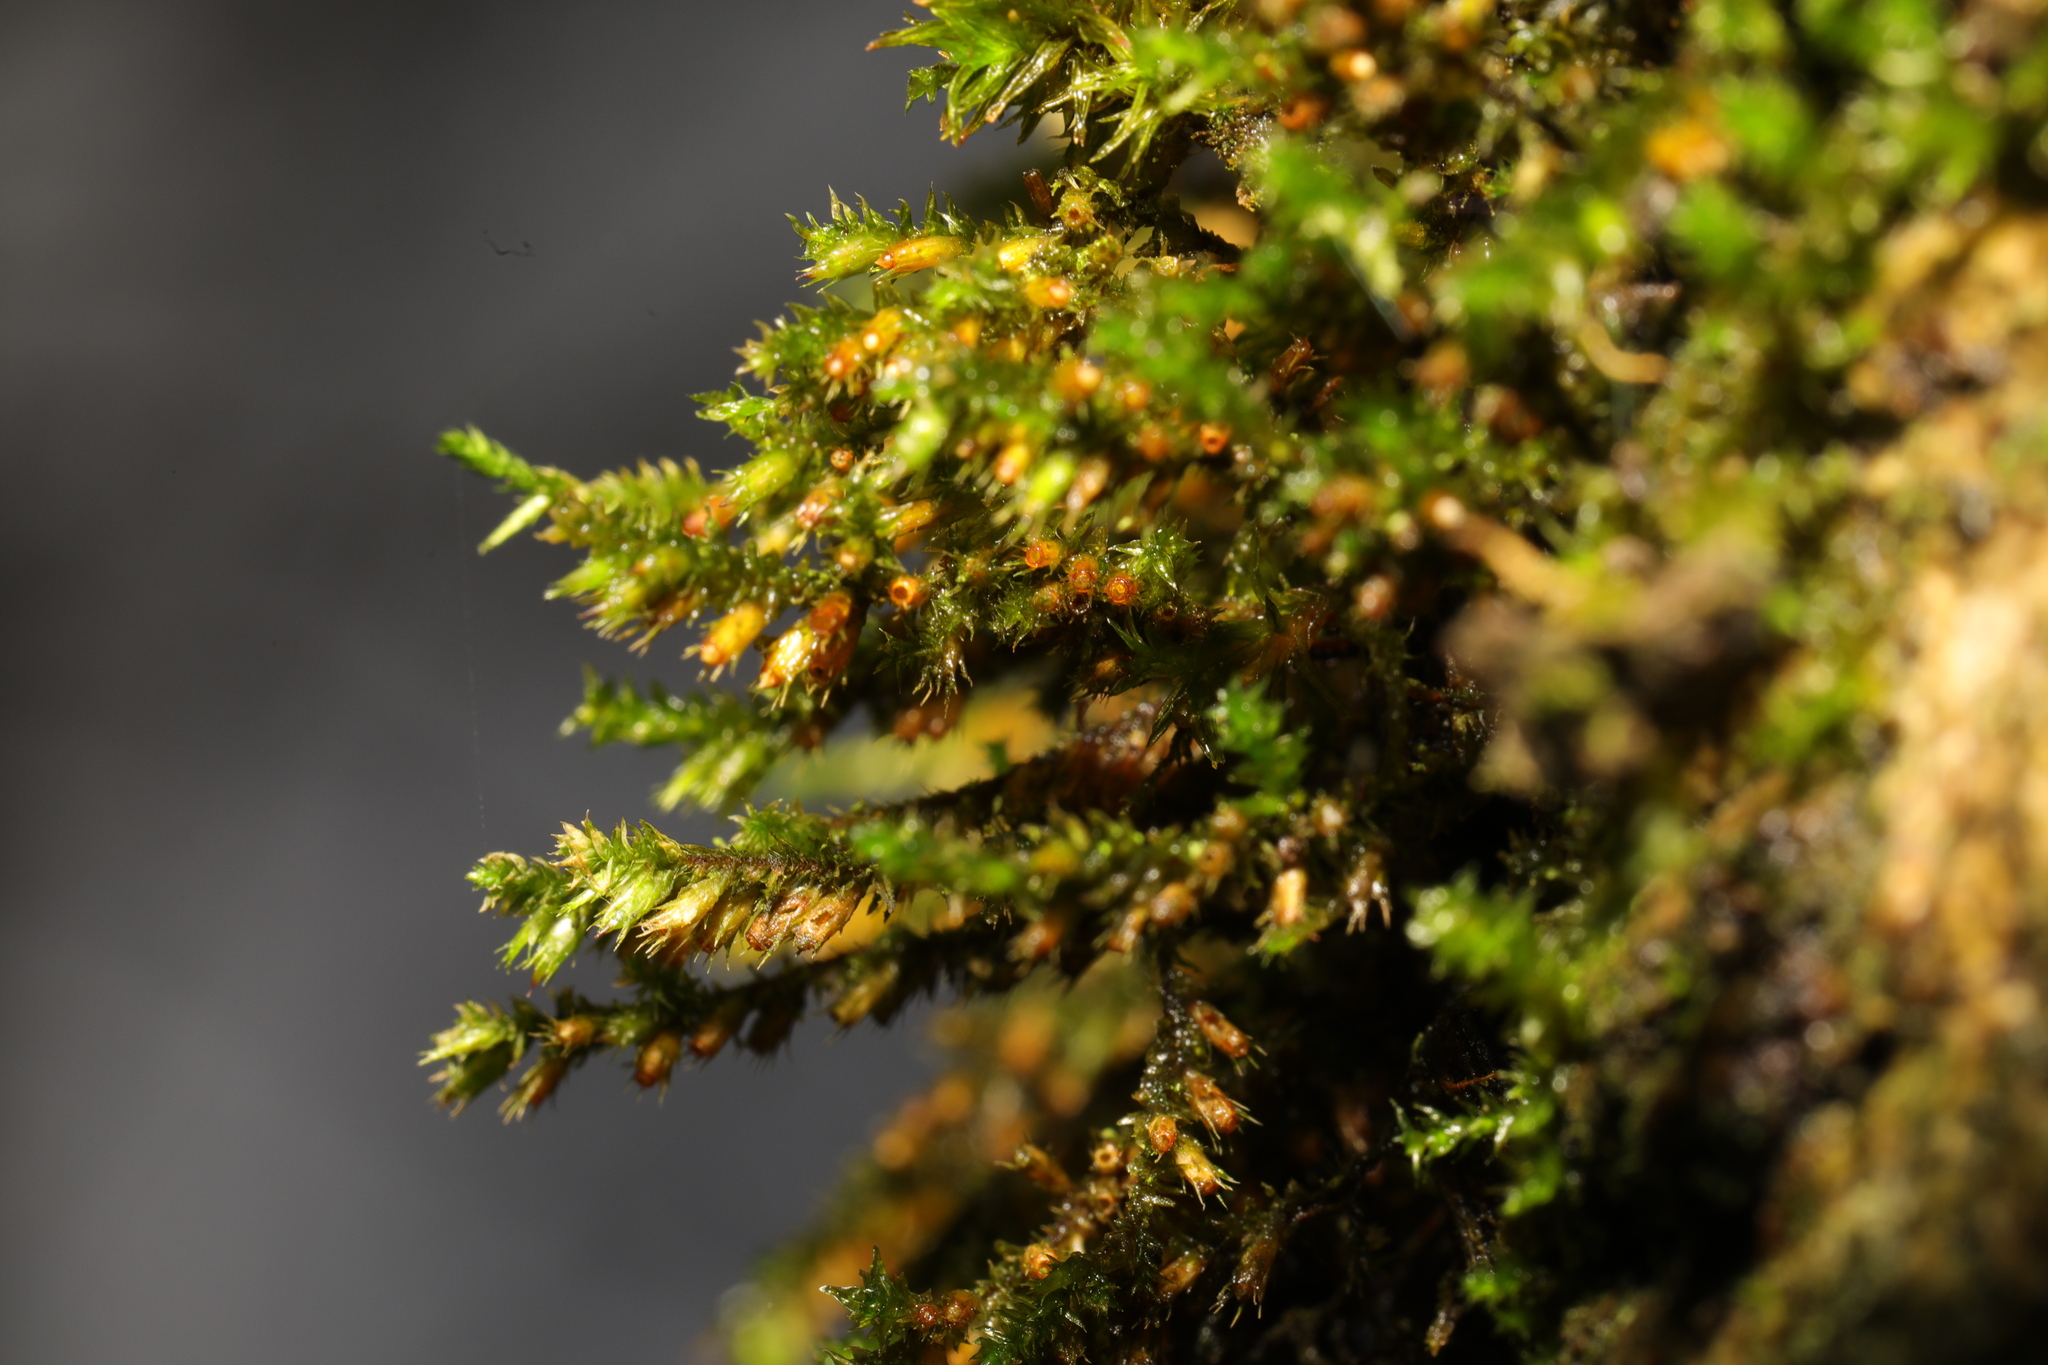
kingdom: Plantae
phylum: Bryophyta
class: Bryopsida
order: Hypnales
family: Cryphaeaceae
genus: Cryphaea
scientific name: Cryphaea heteromalla
